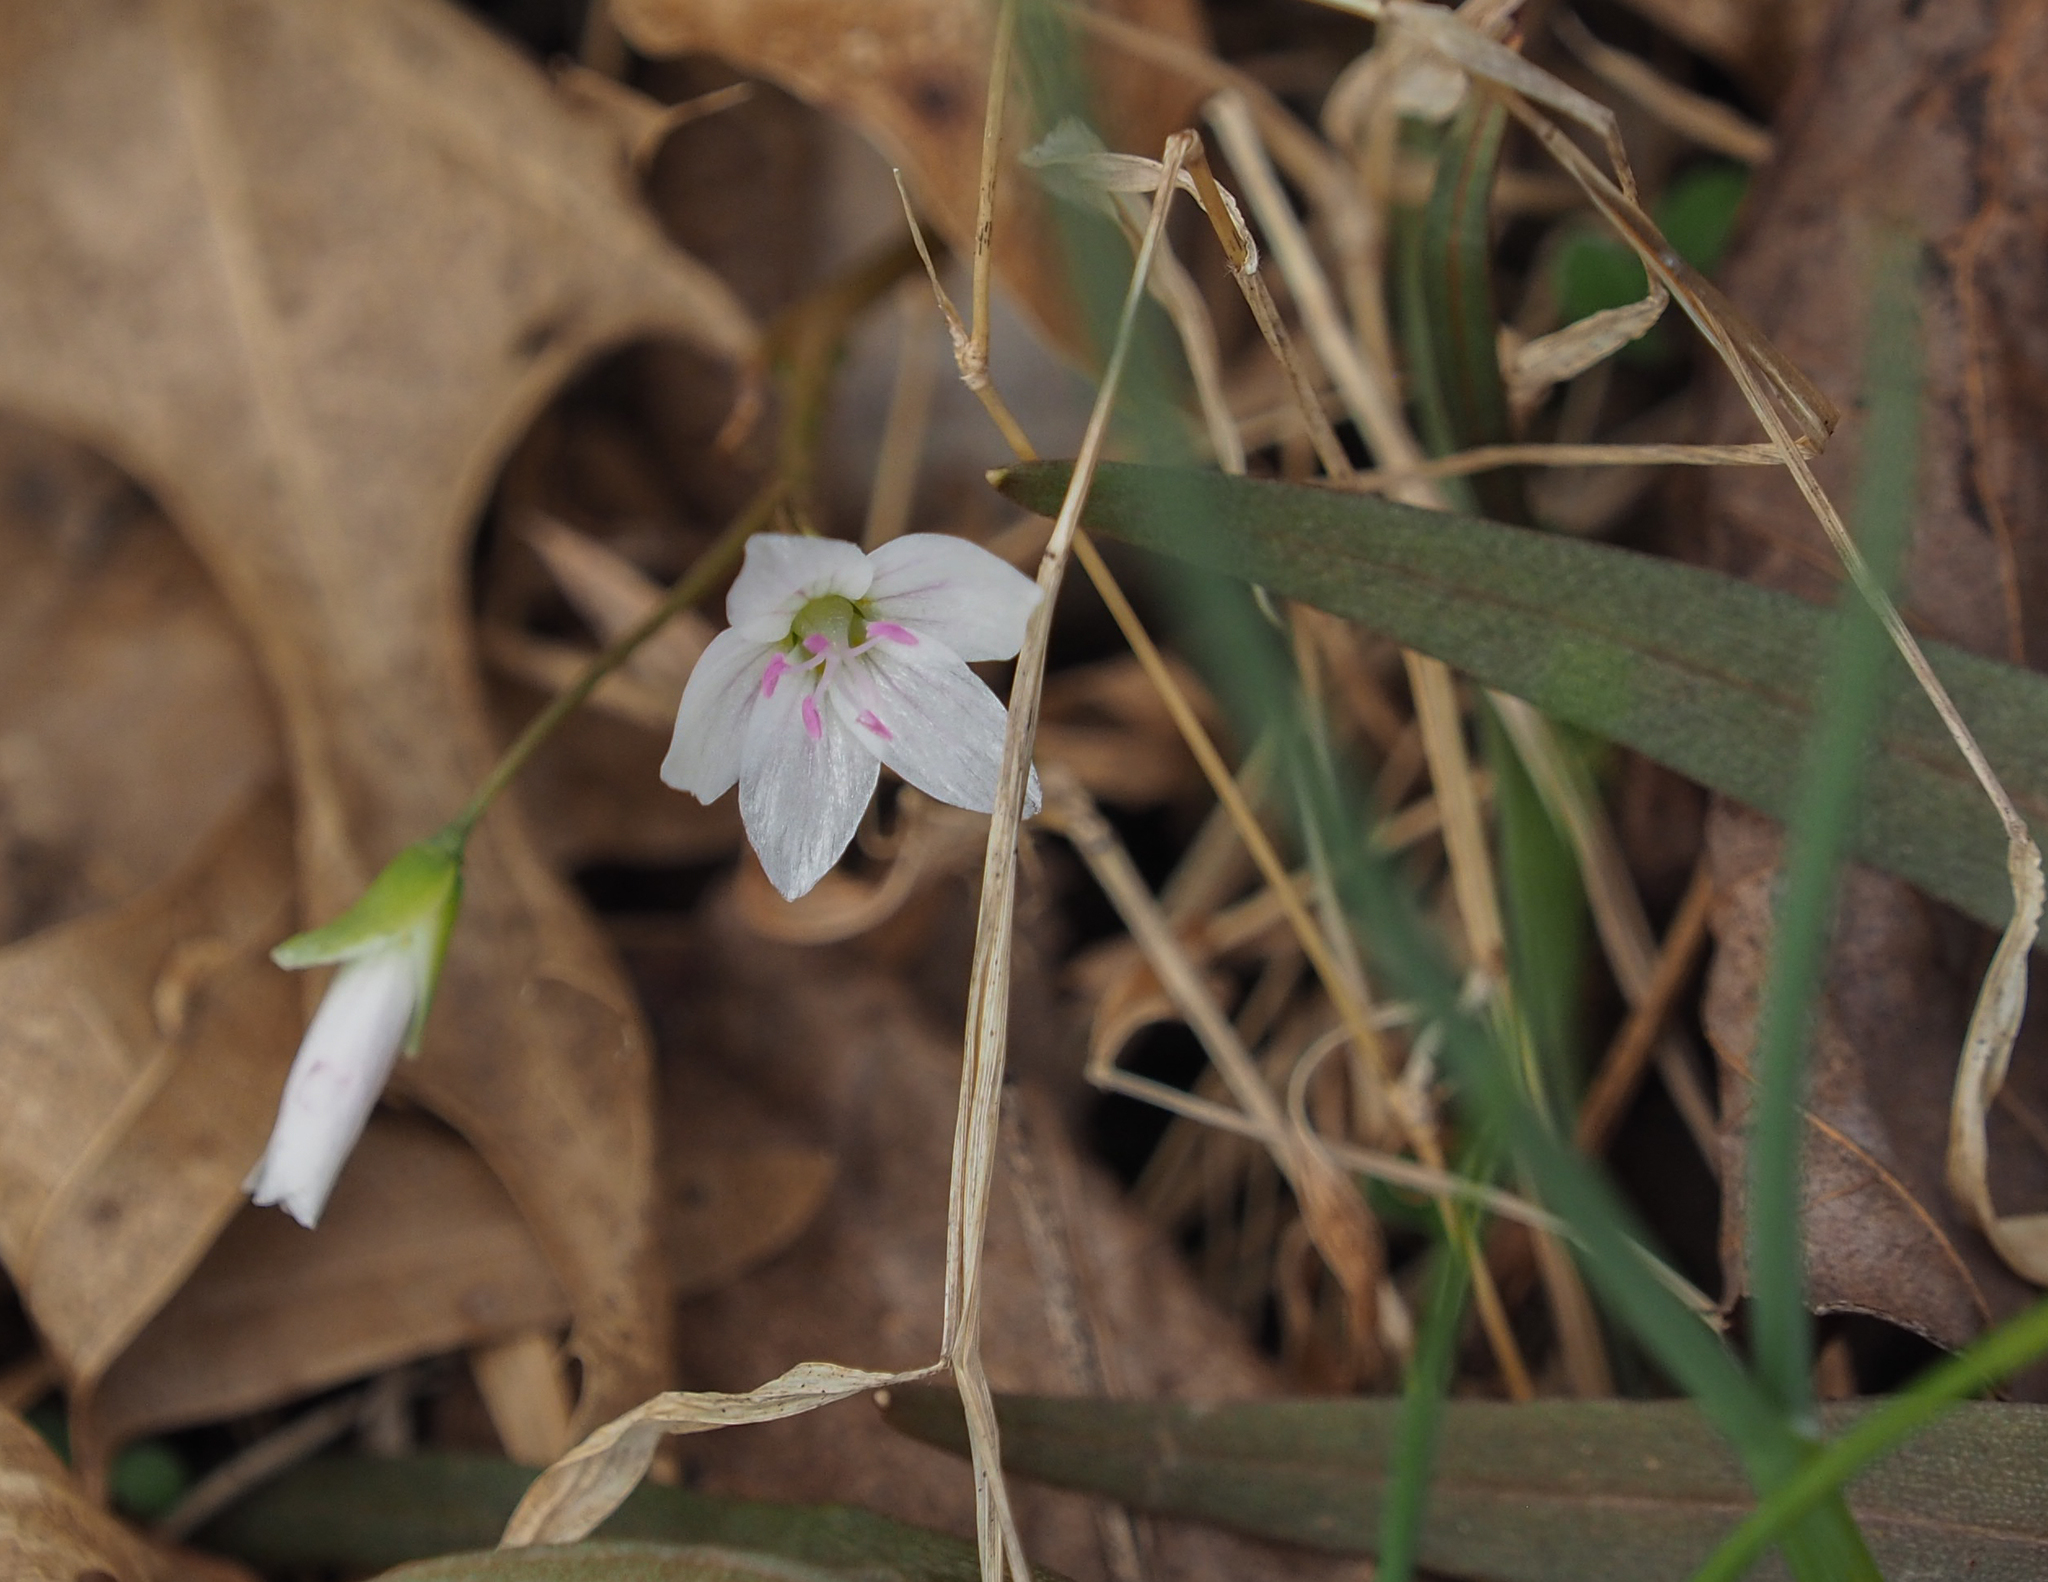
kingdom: Plantae
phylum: Tracheophyta
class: Magnoliopsida
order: Caryophyllales
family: Montiaceae
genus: Claytonia
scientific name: Claytonia virginica
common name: Virginia springbeauty
